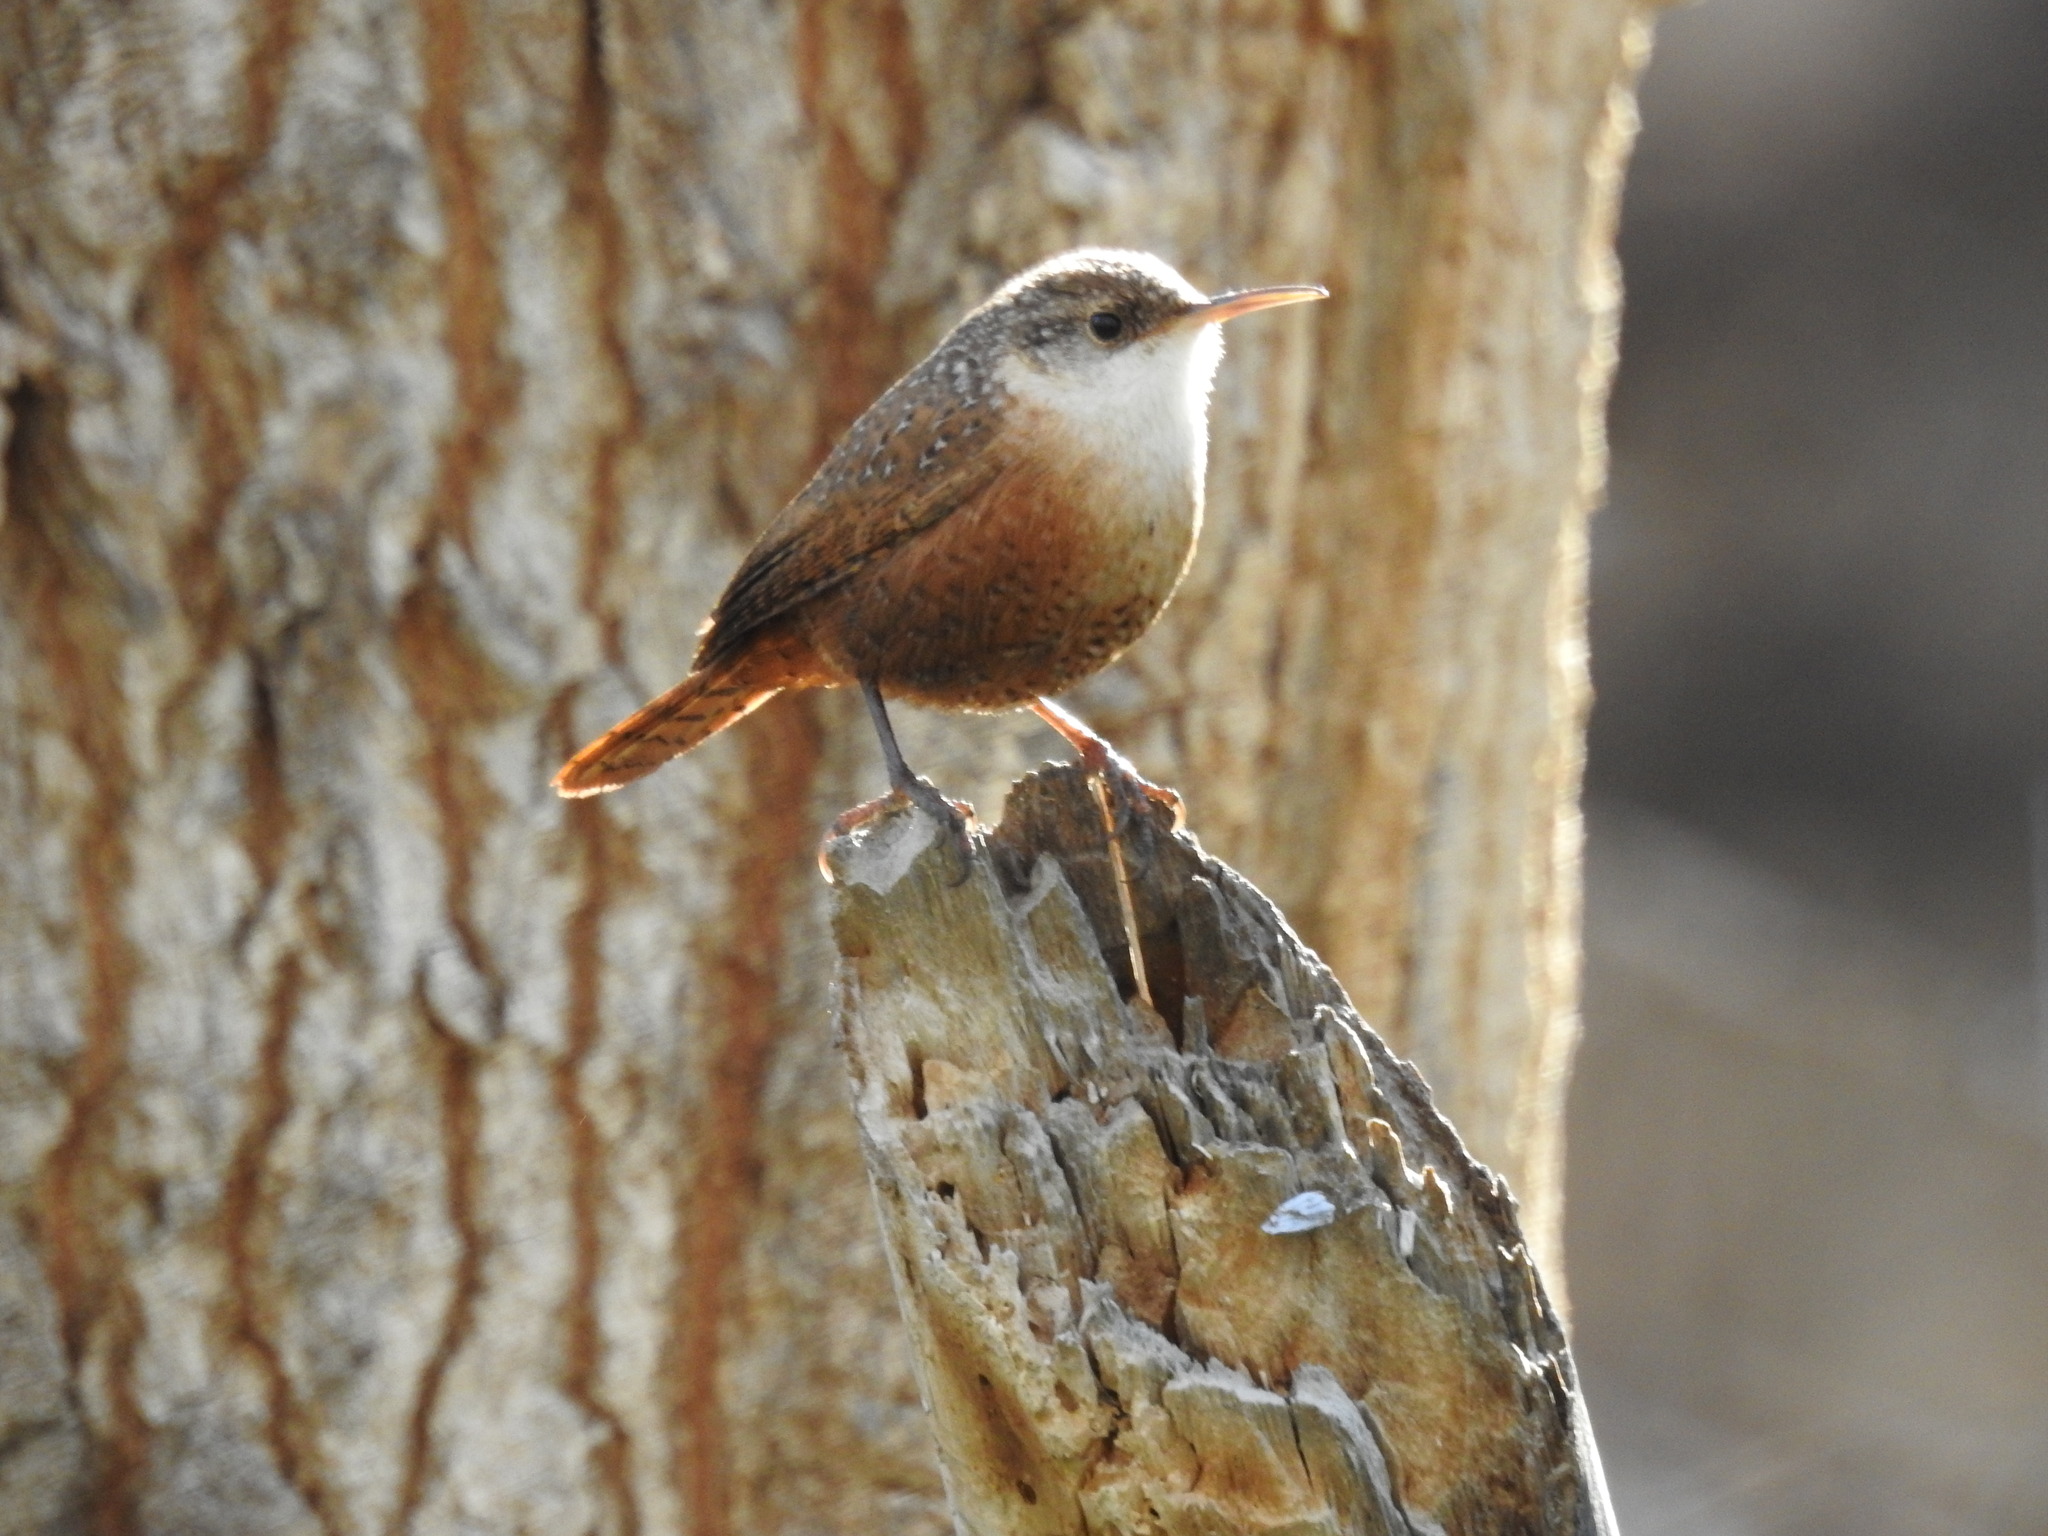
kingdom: Animalia
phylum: Chordata
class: Aves
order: Passeriformes
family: Troglodytidae
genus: Catherpes
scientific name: Catherpes mexicanus
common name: Canyon wren
